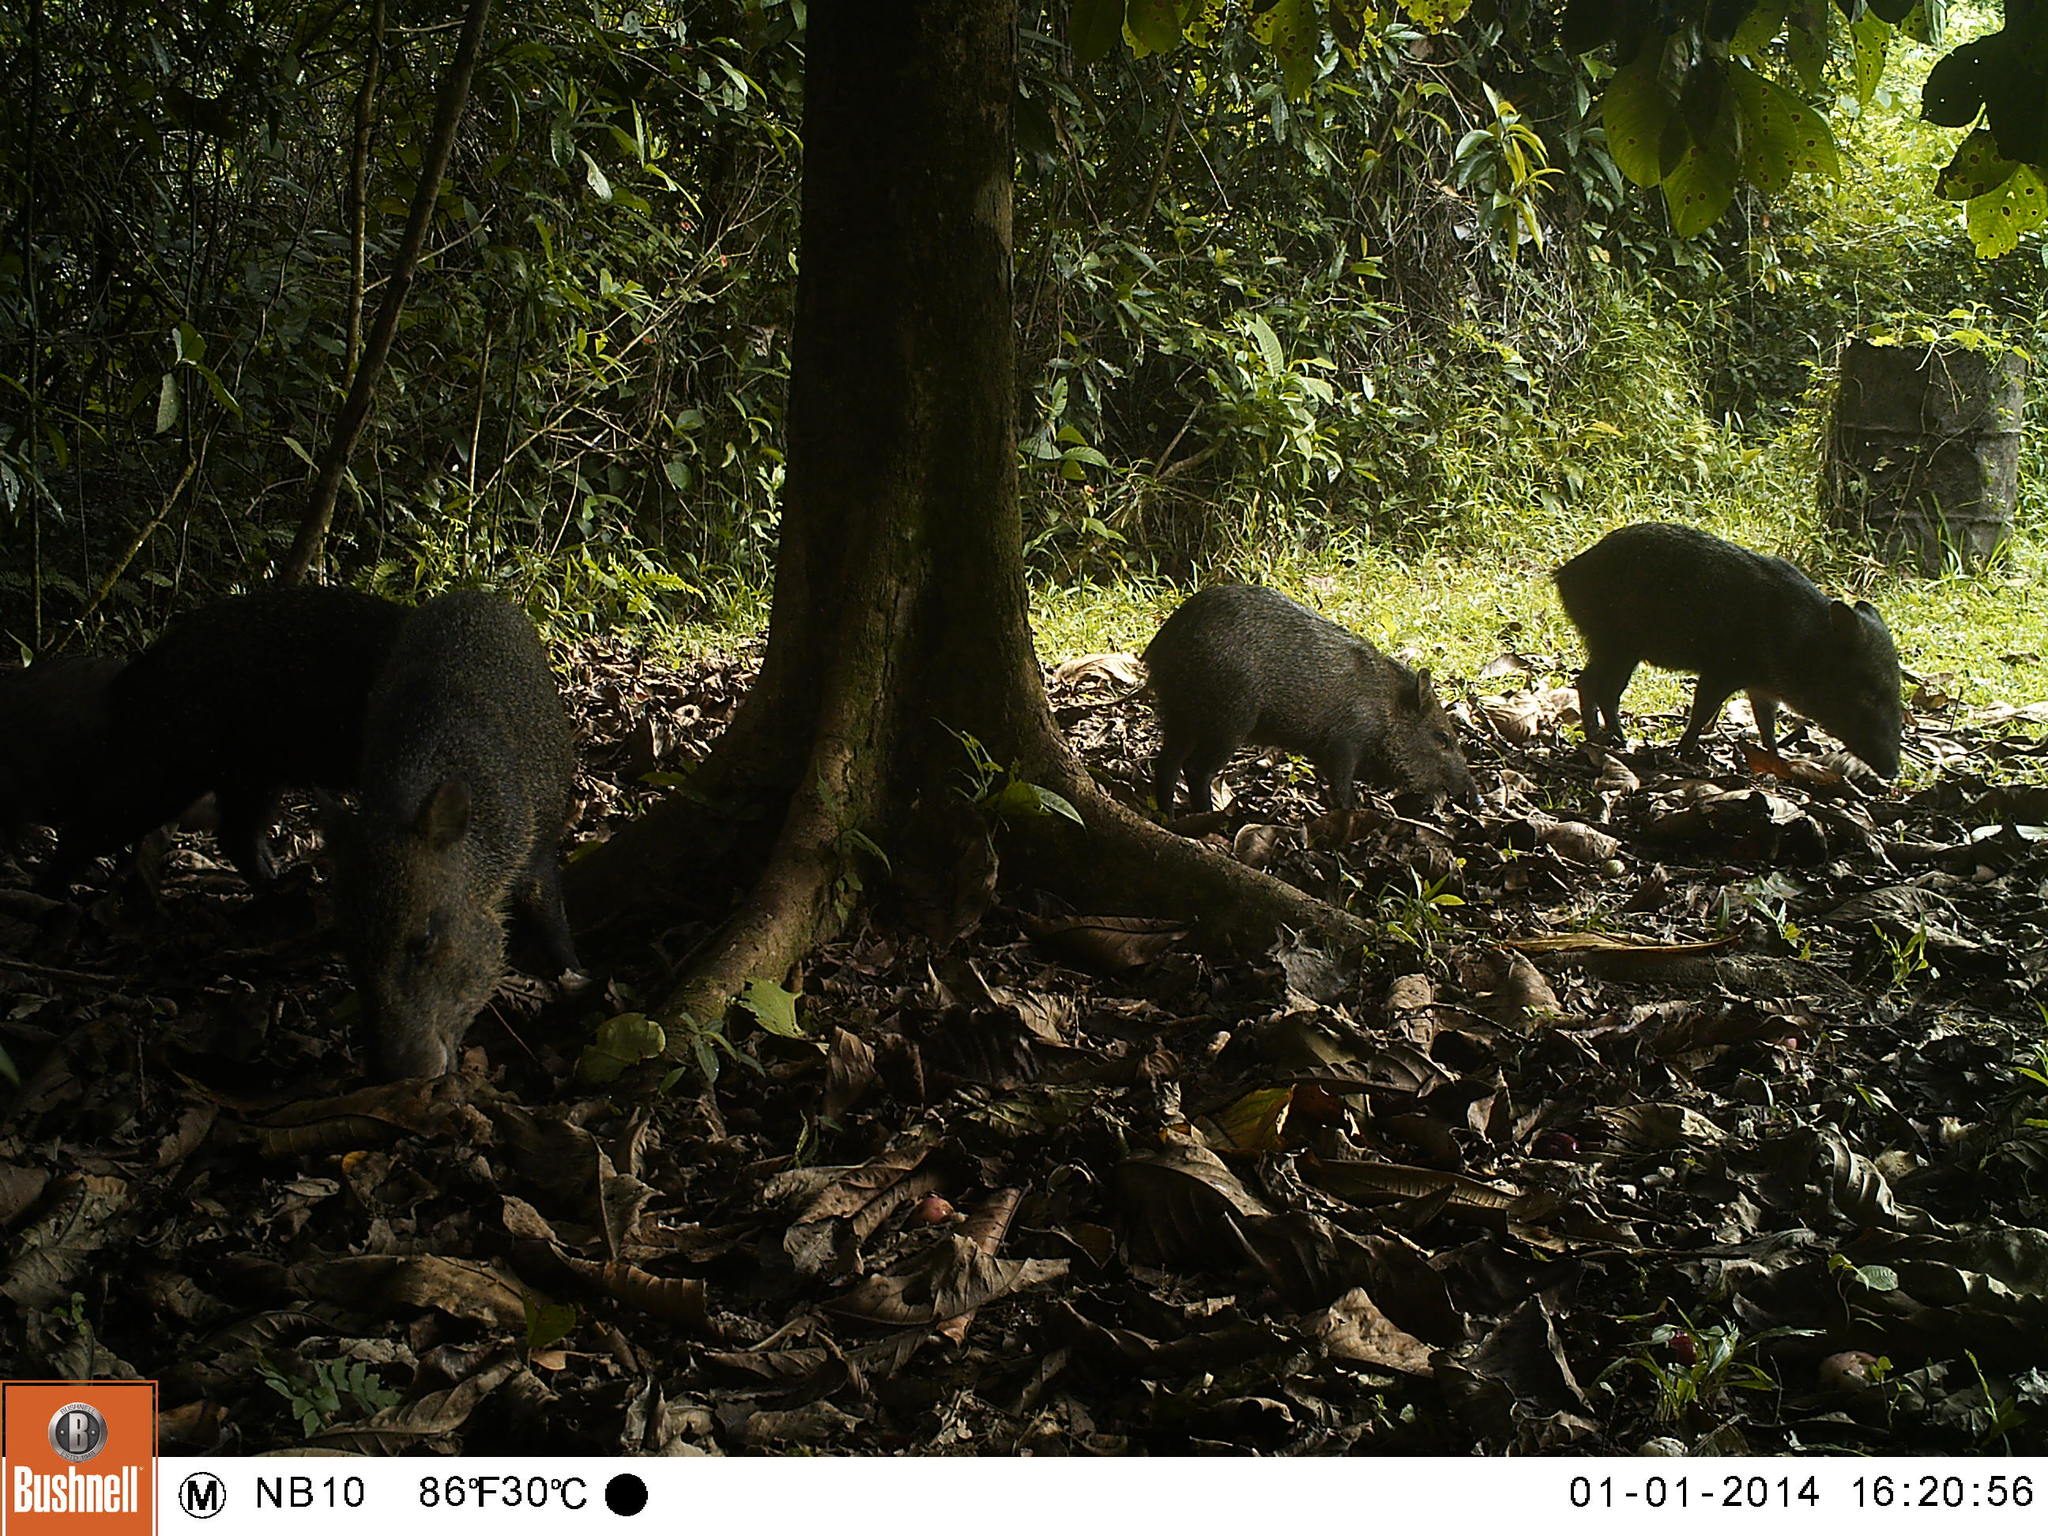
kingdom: Animalia
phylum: Chordata
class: Mammalia
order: Artiodactyla
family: Tayassuidae
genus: Pecari
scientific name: Pecari tajacu
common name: Collared peccary
